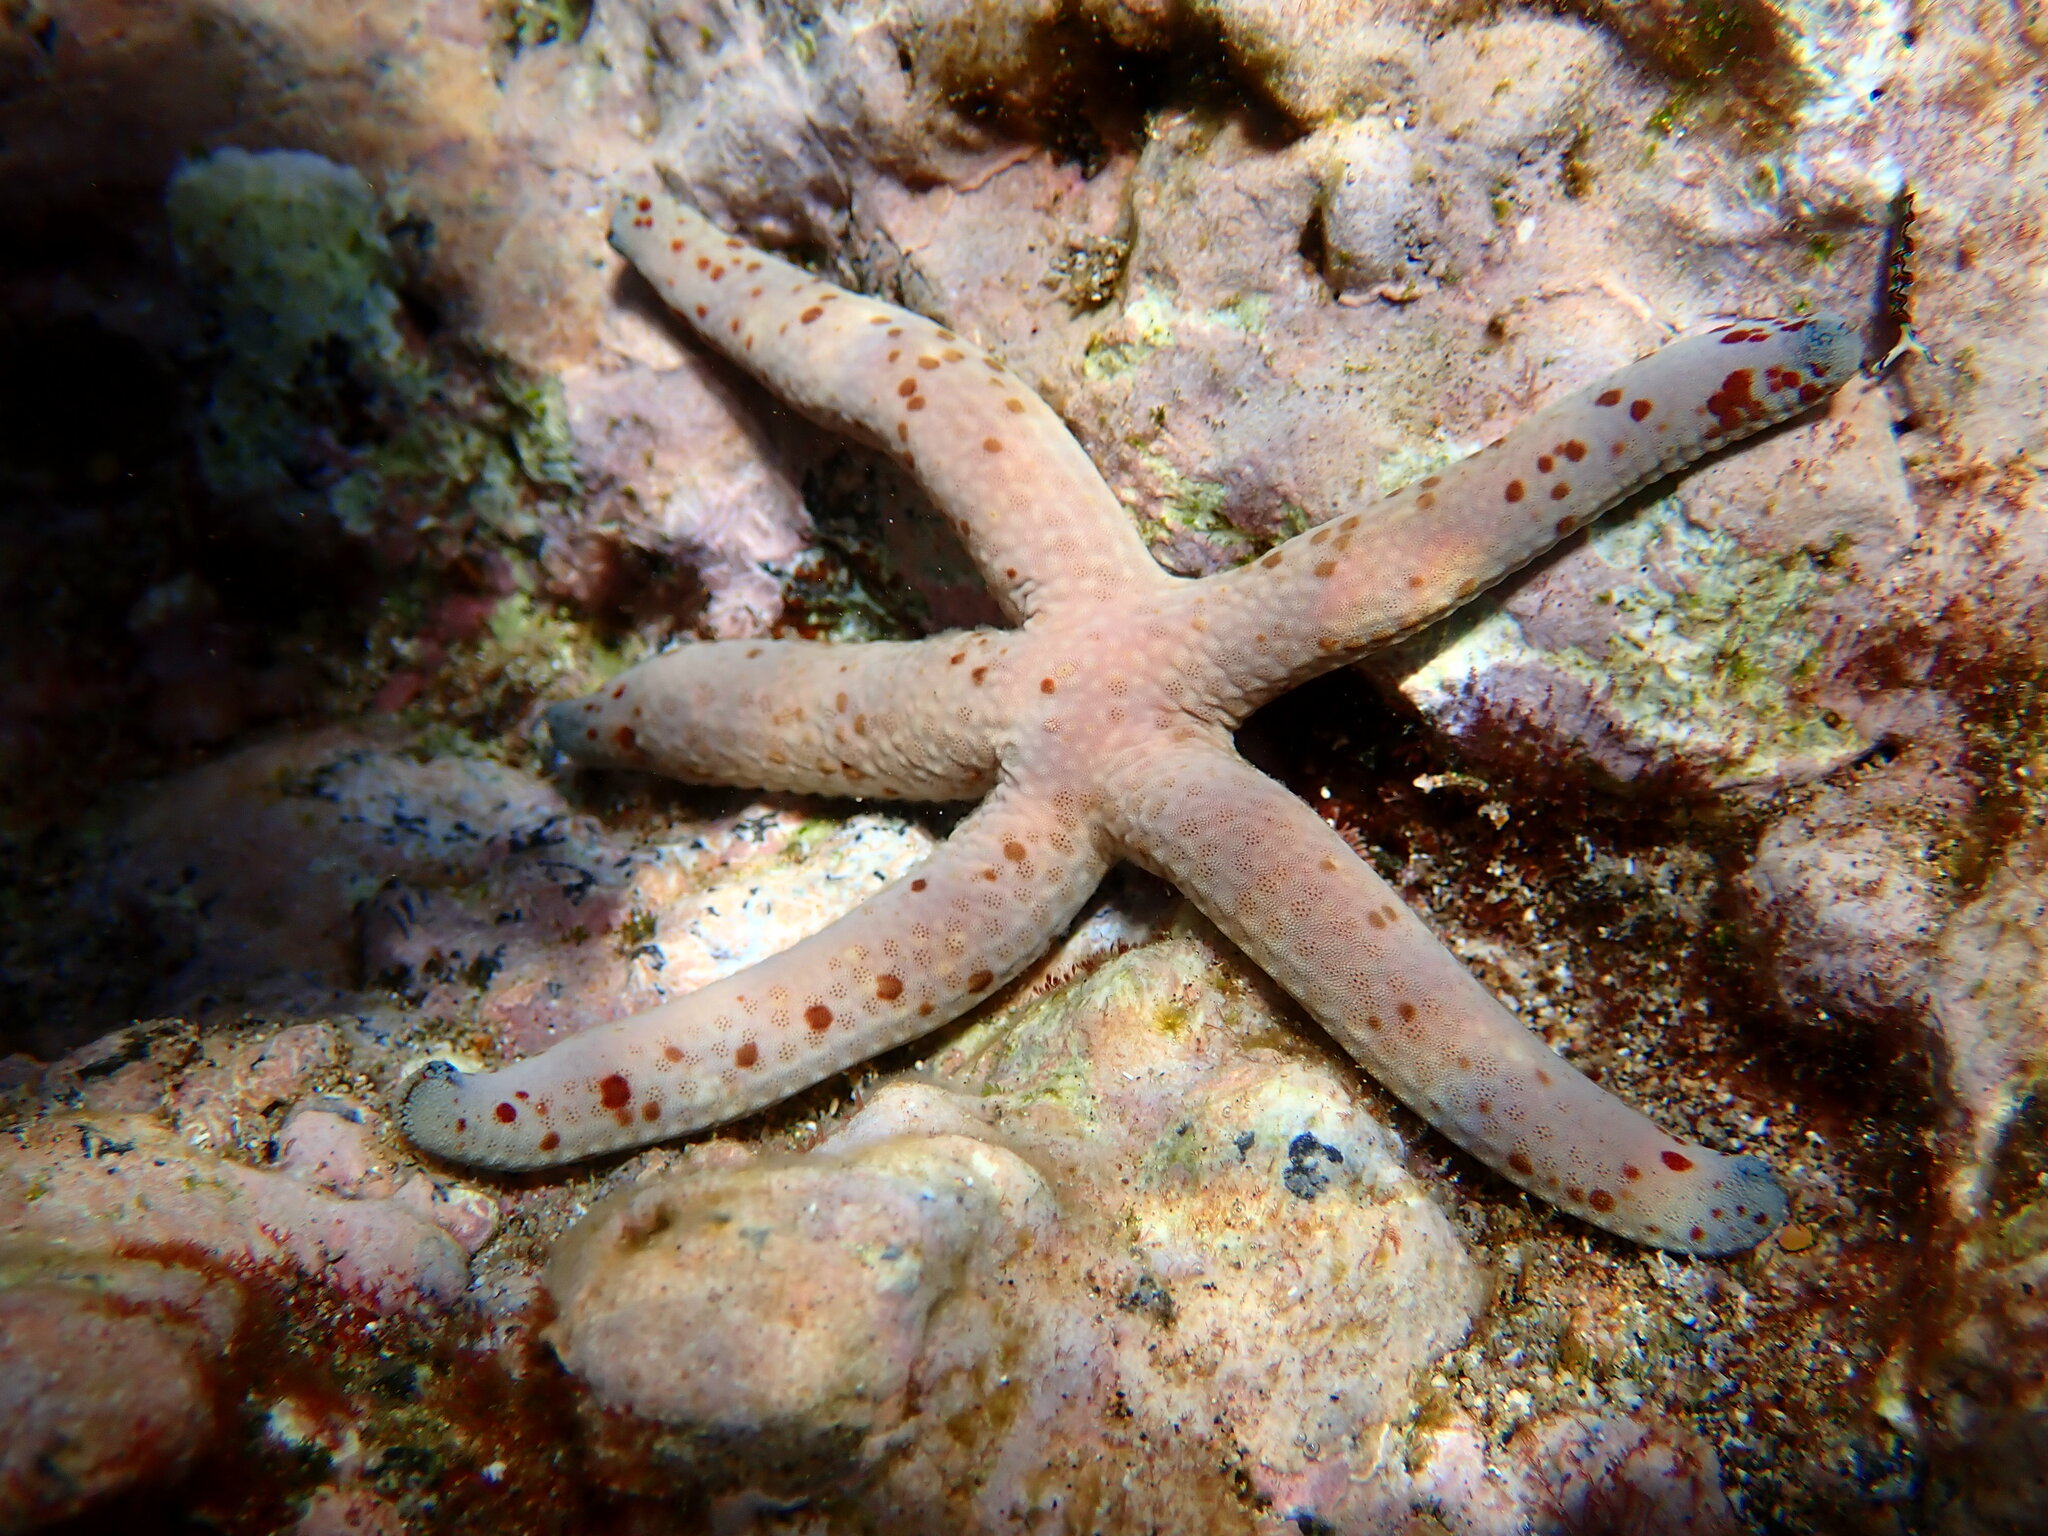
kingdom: Animalia
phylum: Echinodermata
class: Asteroidea
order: Valvatida
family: Ophidiasteridae
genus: Linckia
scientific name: Linckia multifora
